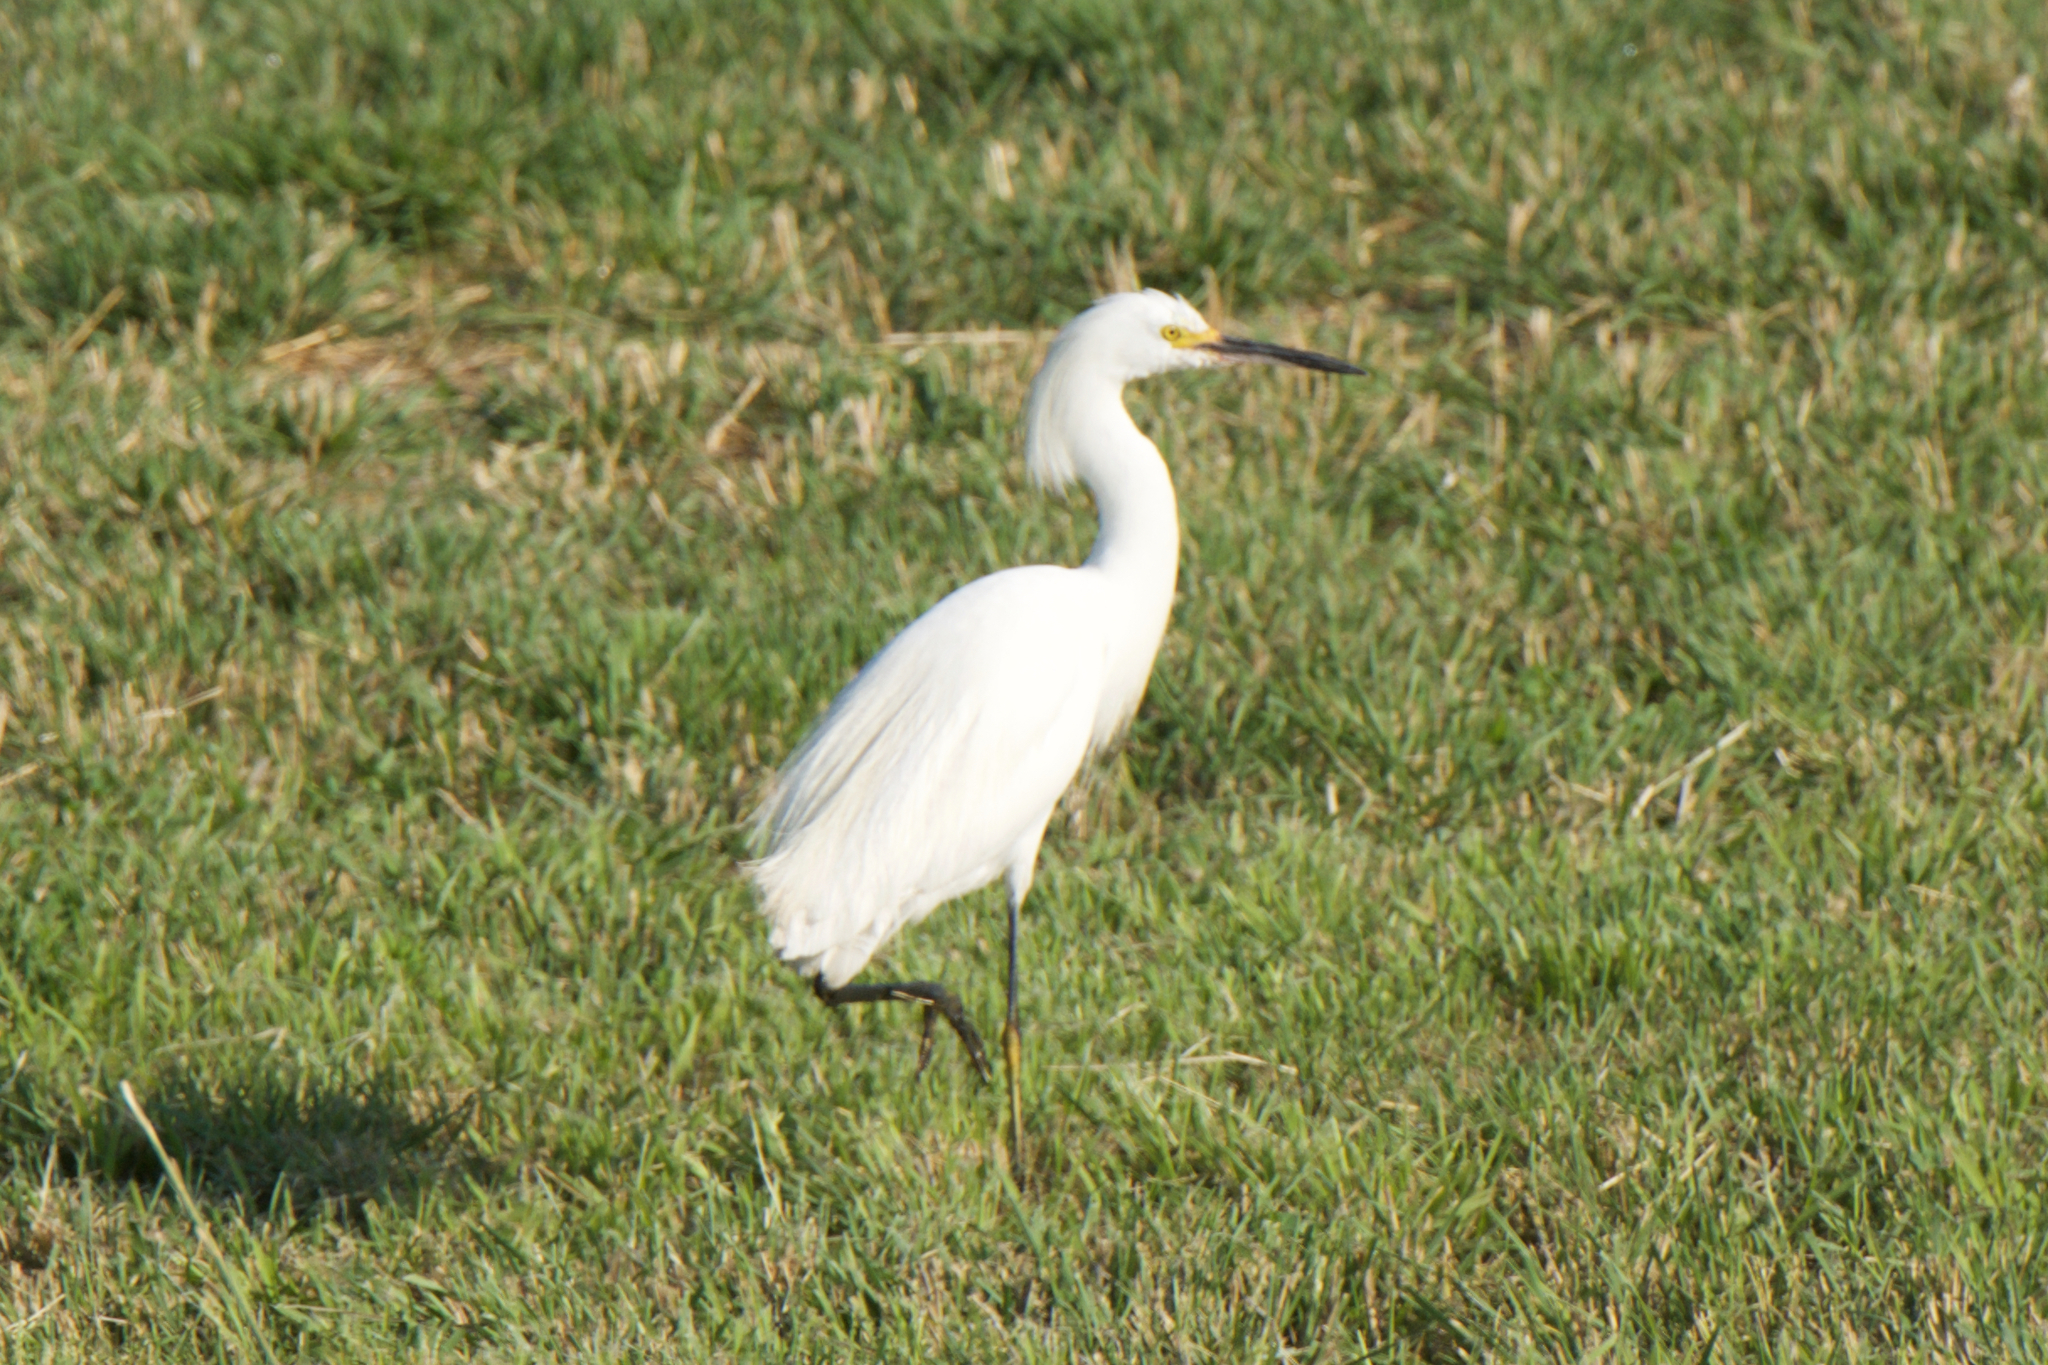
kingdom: Animalia
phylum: Chordata
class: Aves
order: Pelecaniformes
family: Ardeidae
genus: Egretta
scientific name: Egretta thula
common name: Snowy egret
